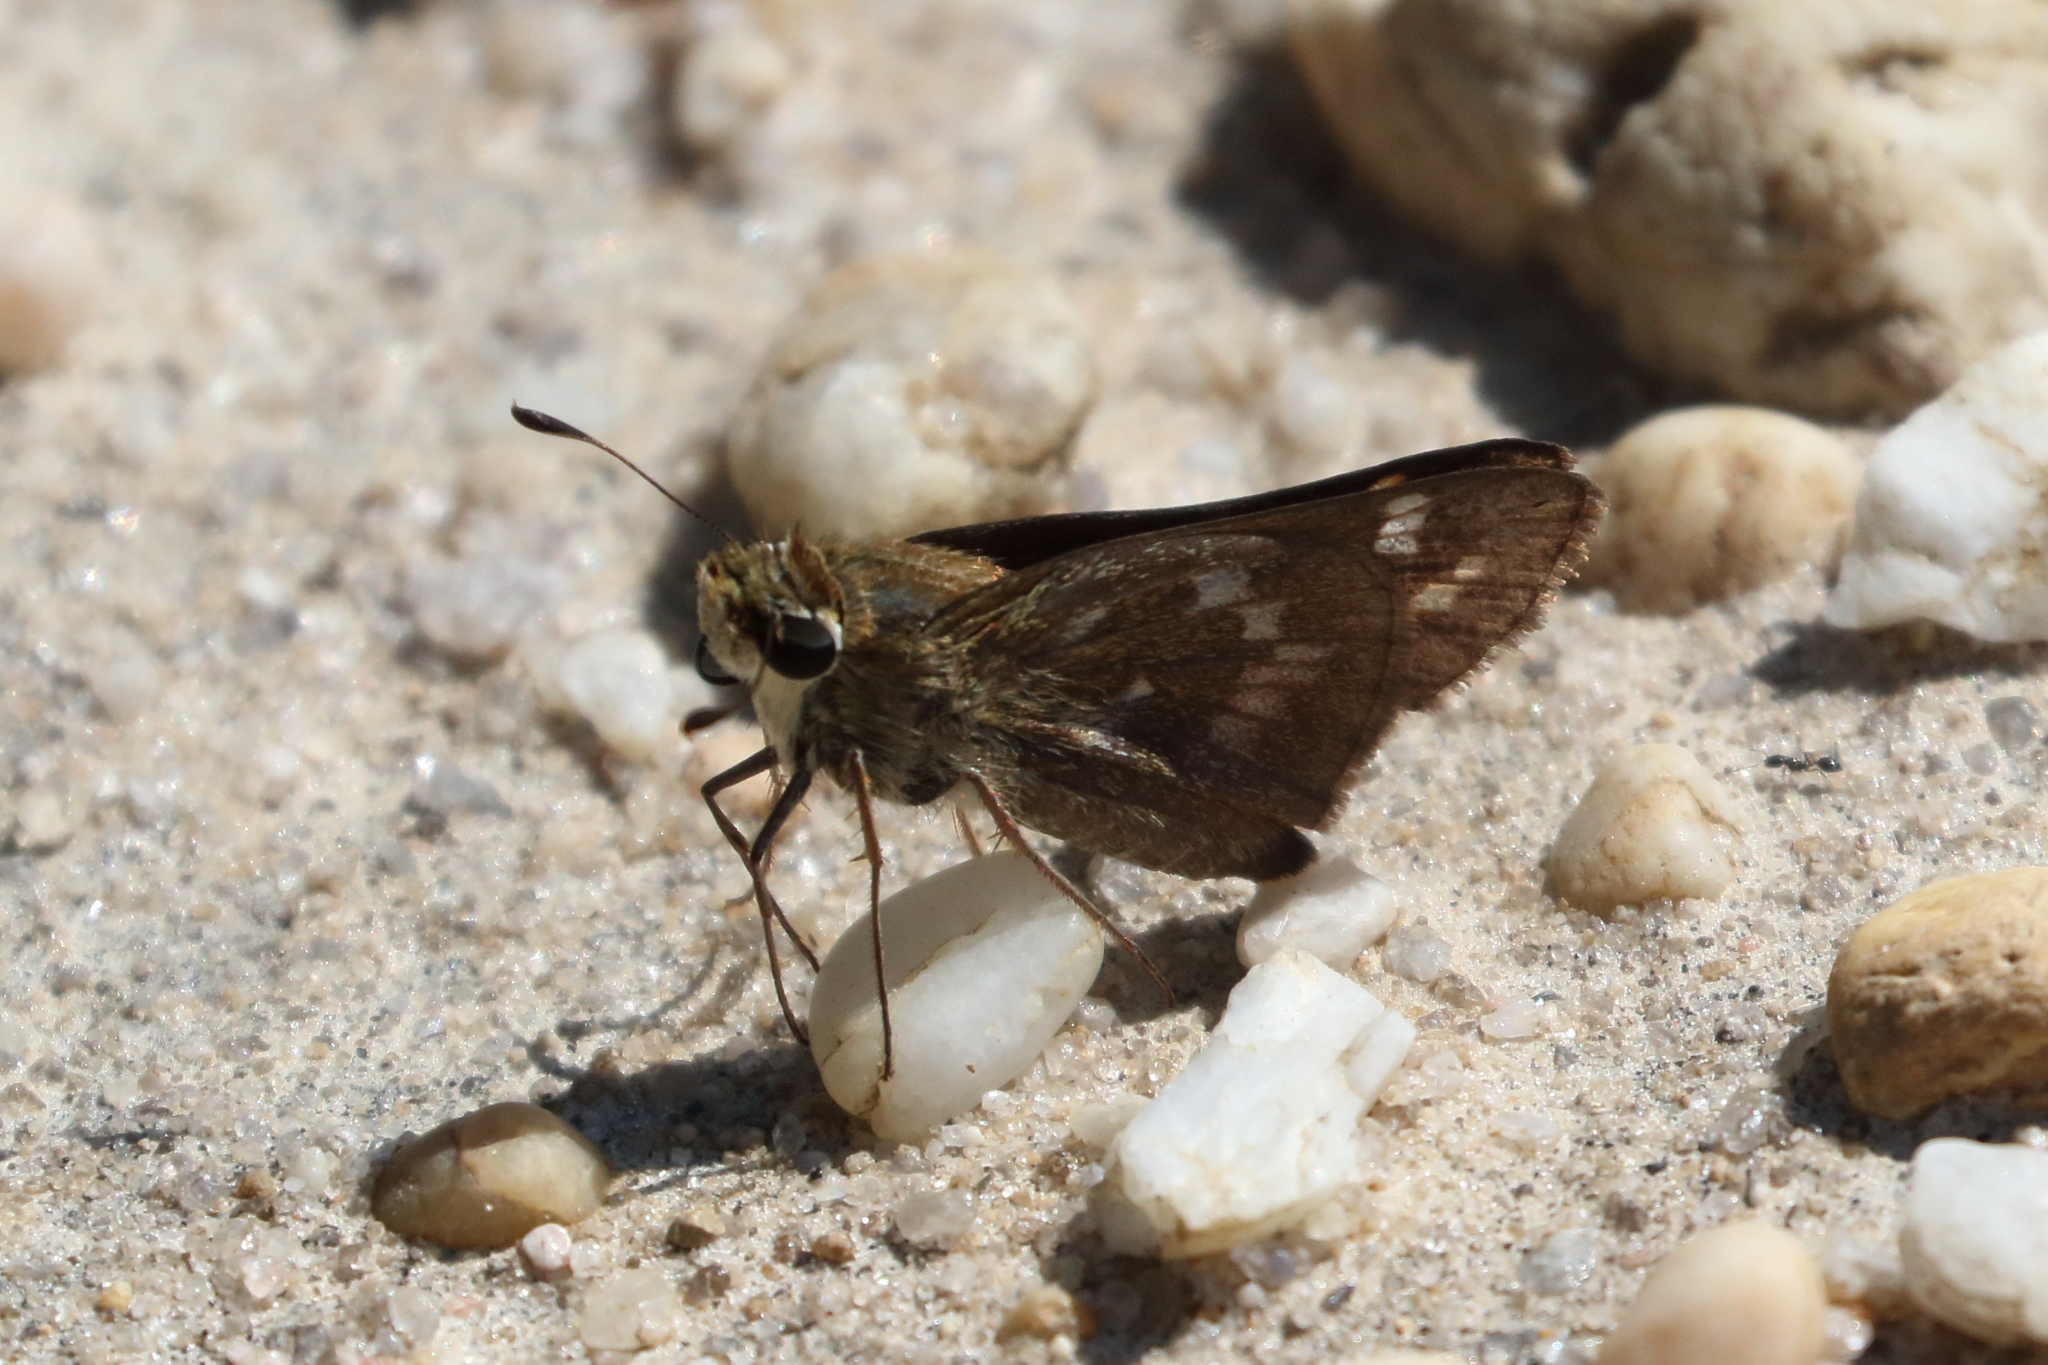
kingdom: Animalia
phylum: Arthropoda
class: Insecta
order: Lepidoptera
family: Hesperiidae
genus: Atalopedes
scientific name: Atalopedes
